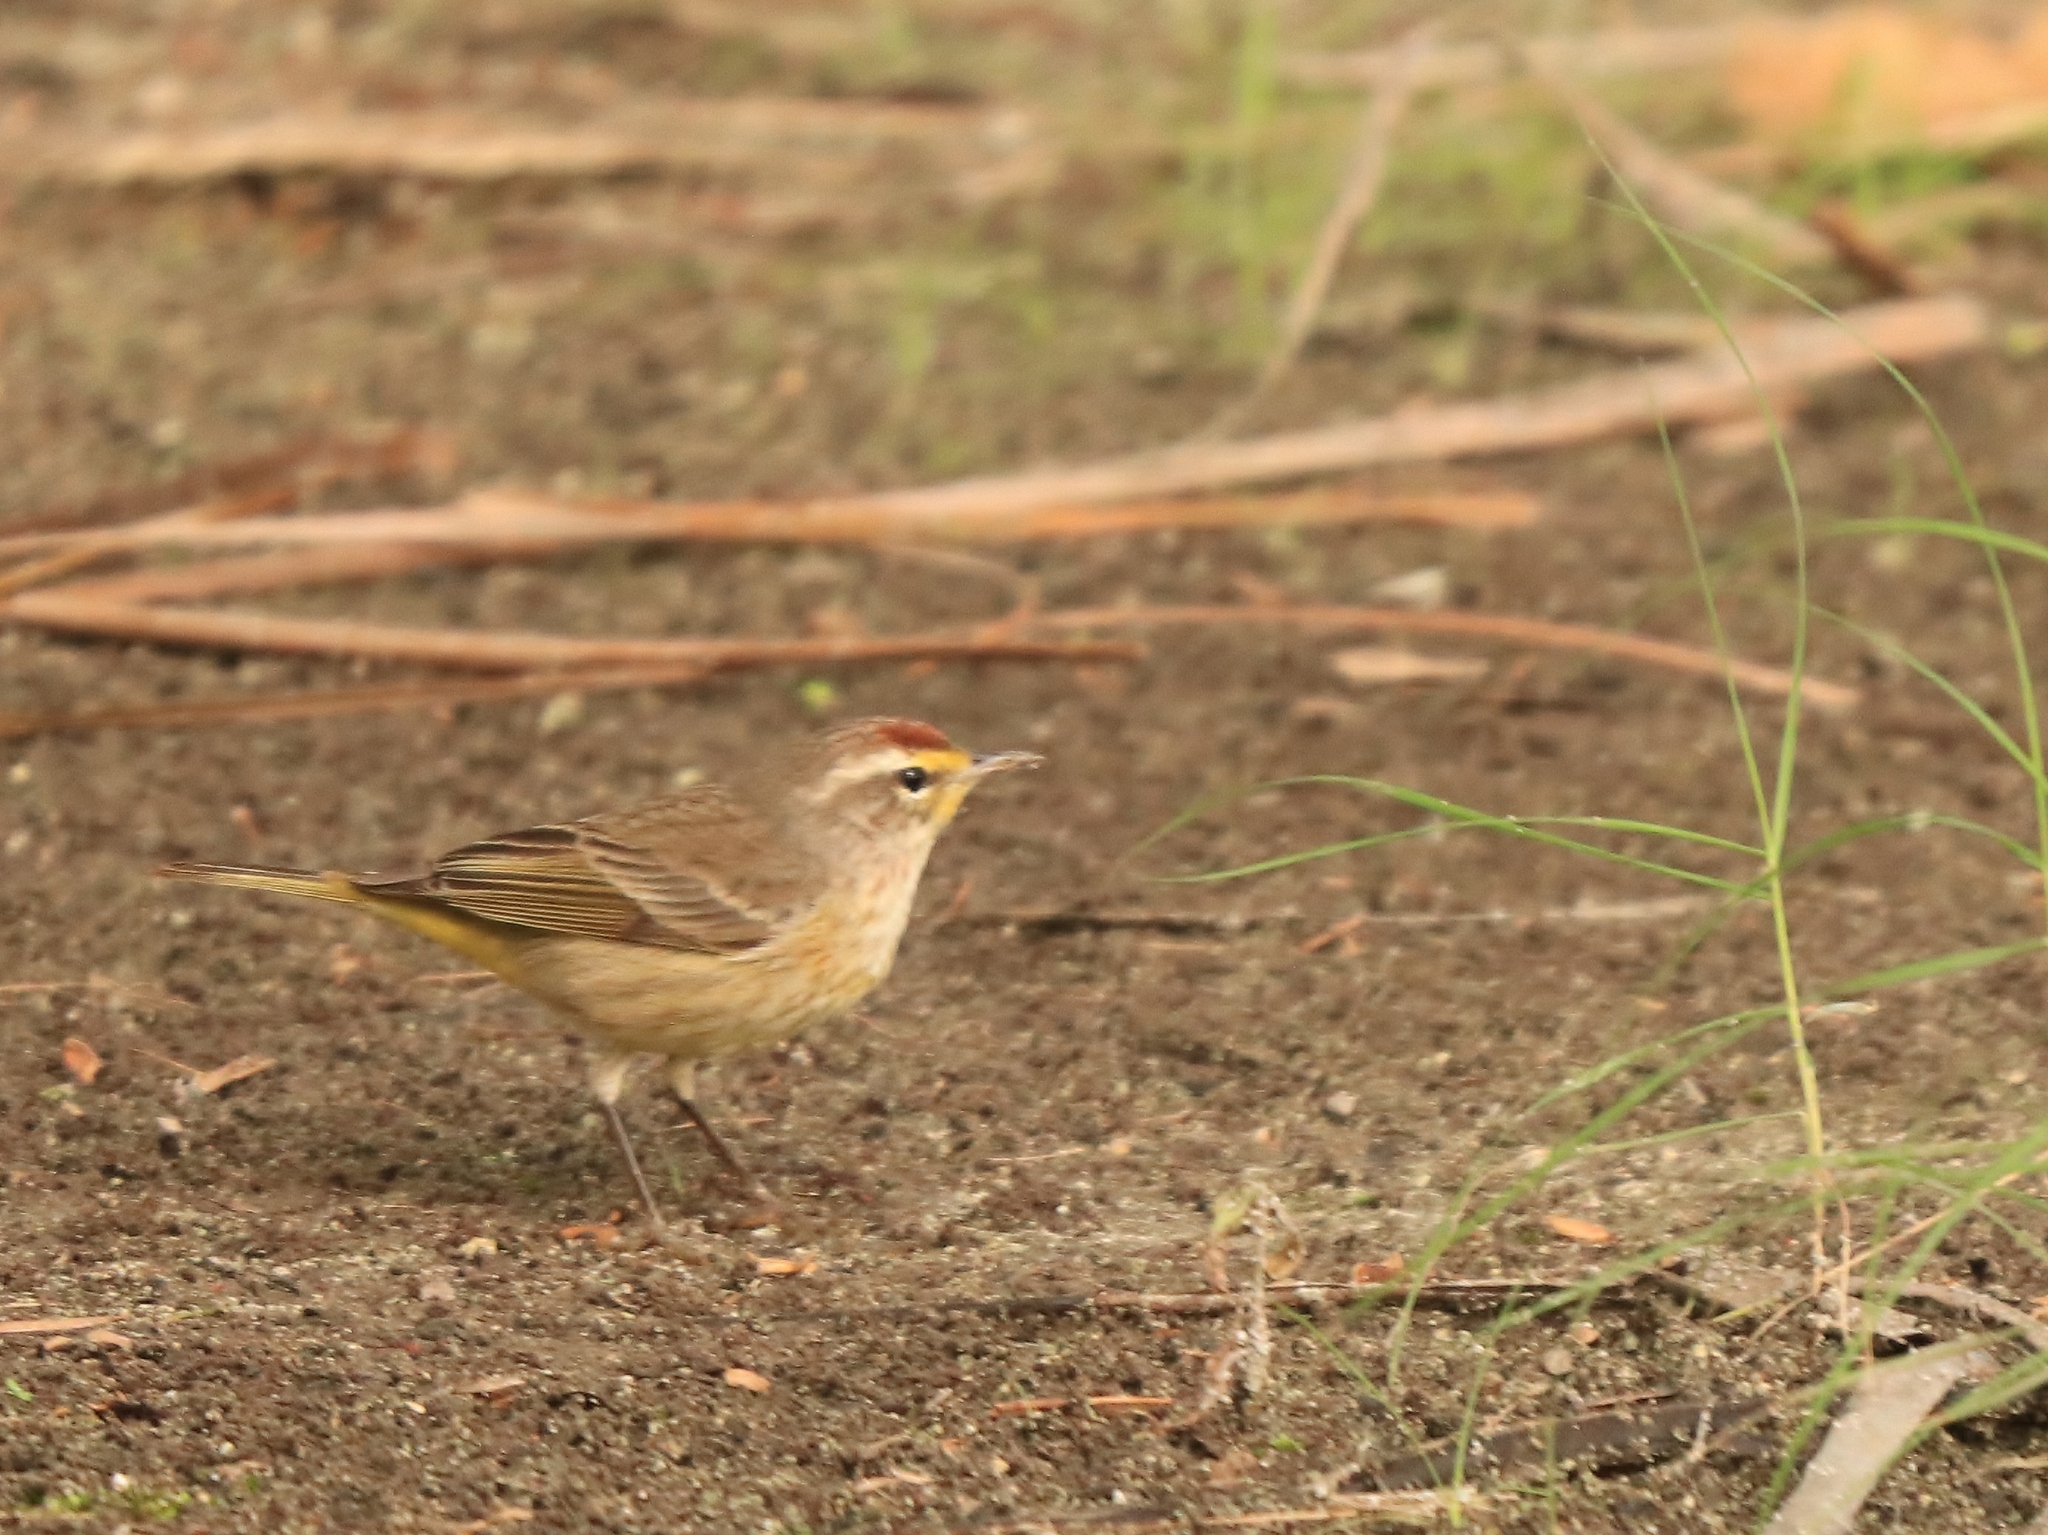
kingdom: Animalia
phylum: Chordata
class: Aves
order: Passeriformes
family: Parulidae
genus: Setophaga
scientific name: Setophaga palmarum
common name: Palm warbler
